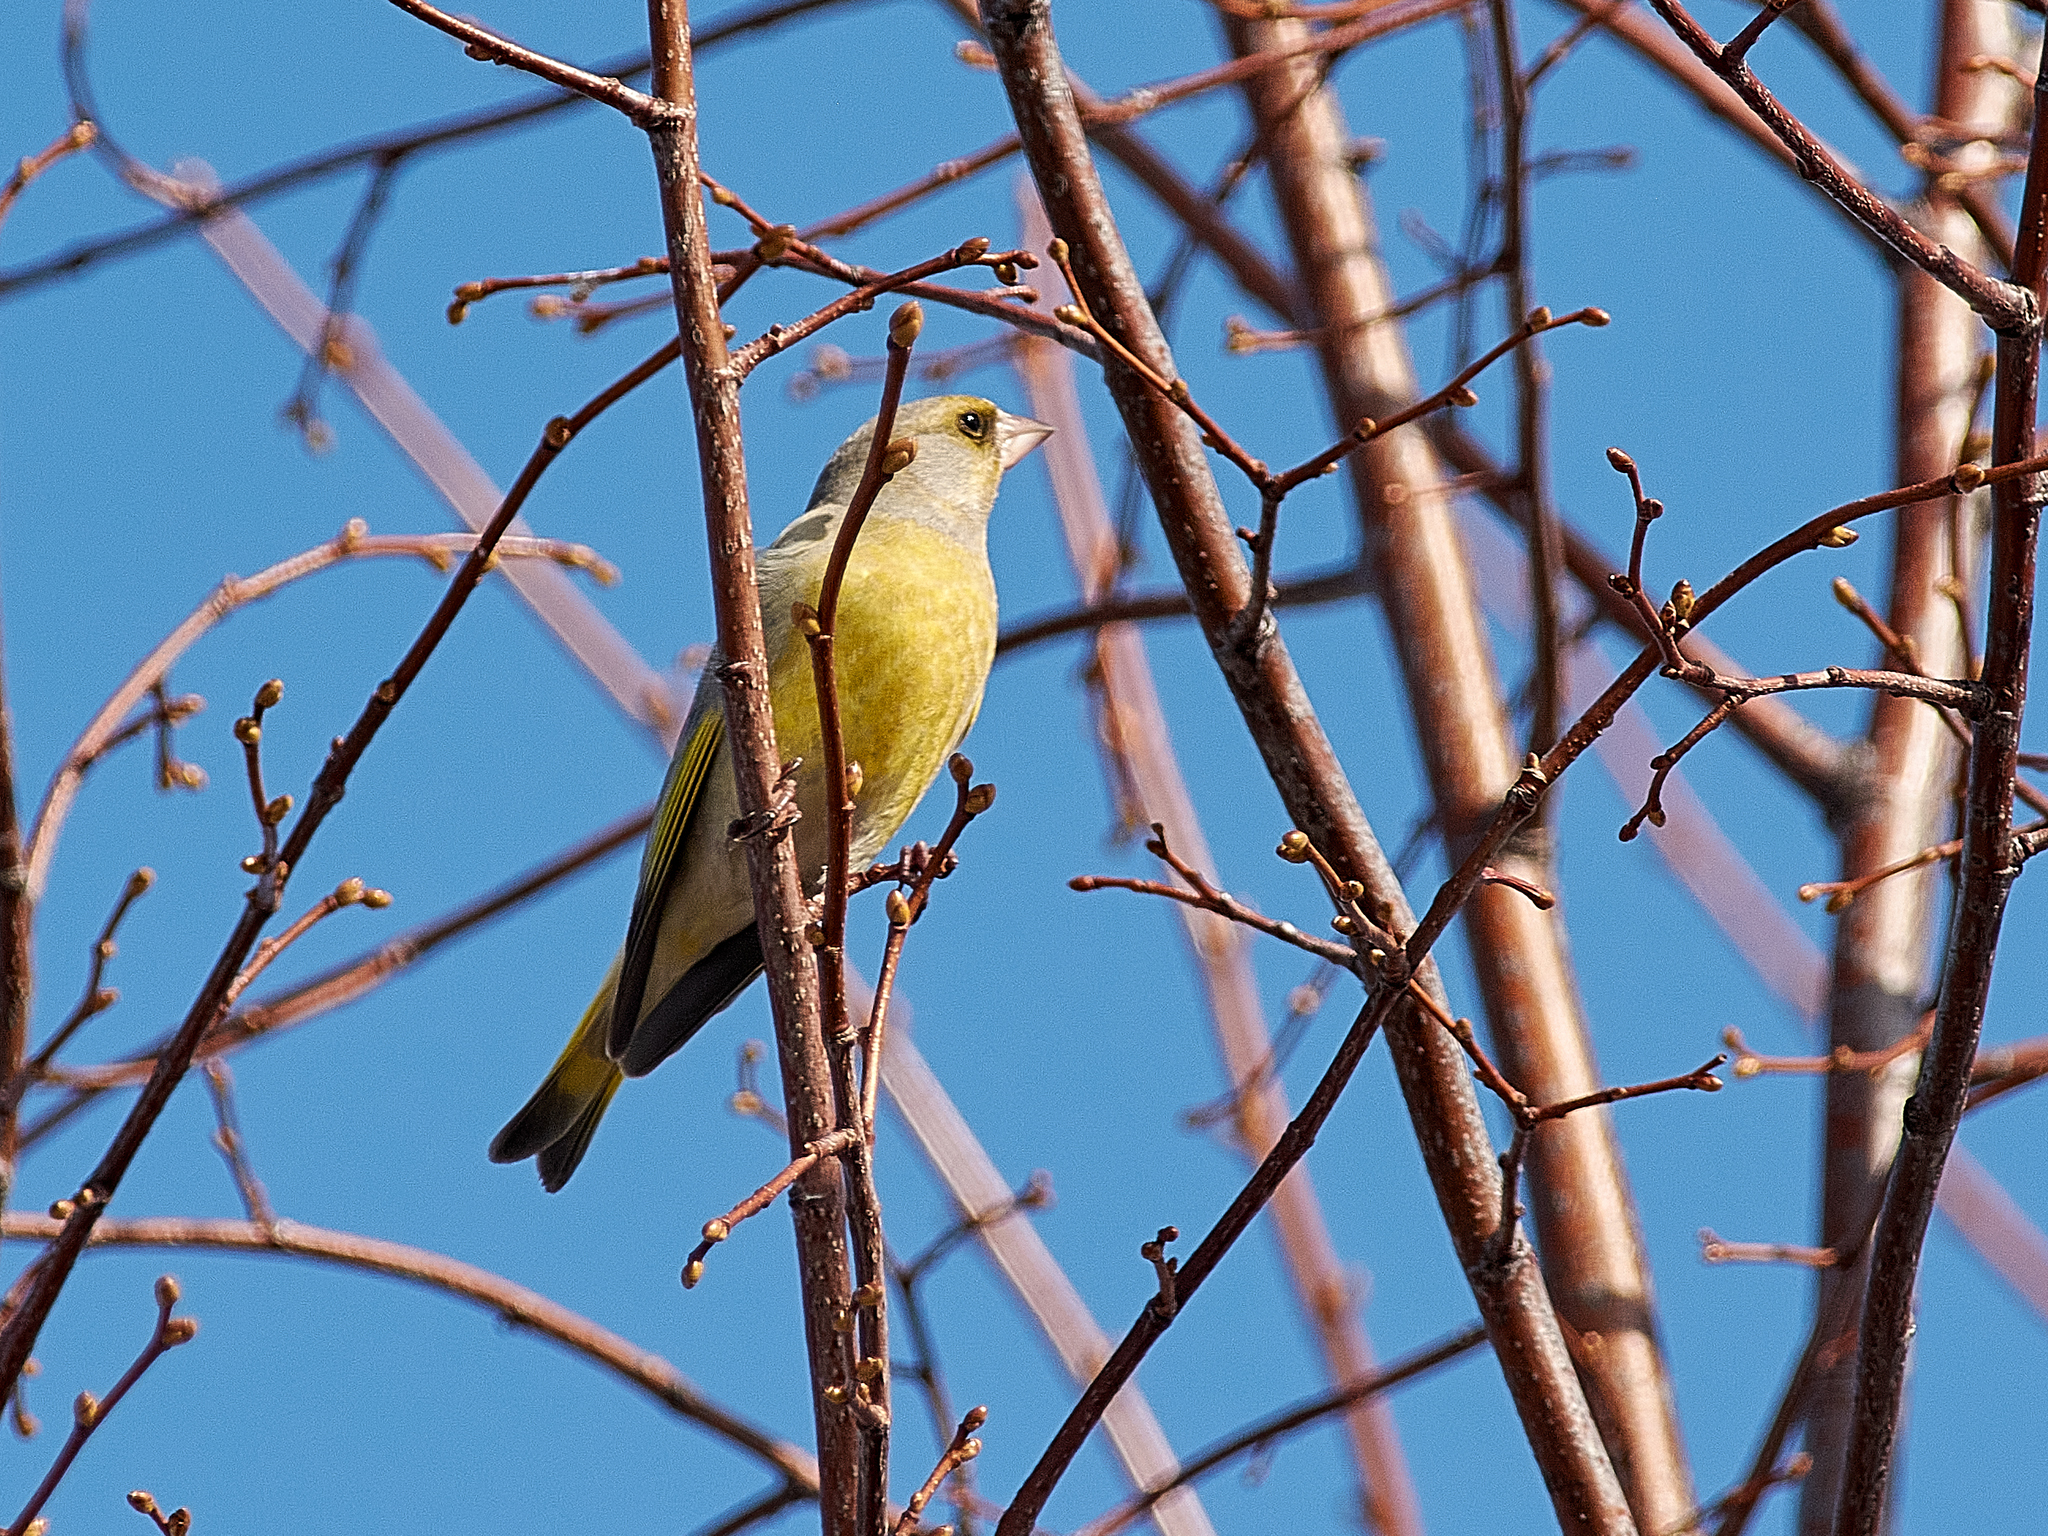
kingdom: Plantae
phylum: Tracheophyta
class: Liliopsida
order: Poales
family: Poaceae
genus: Chloris
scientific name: Chloris chloris
